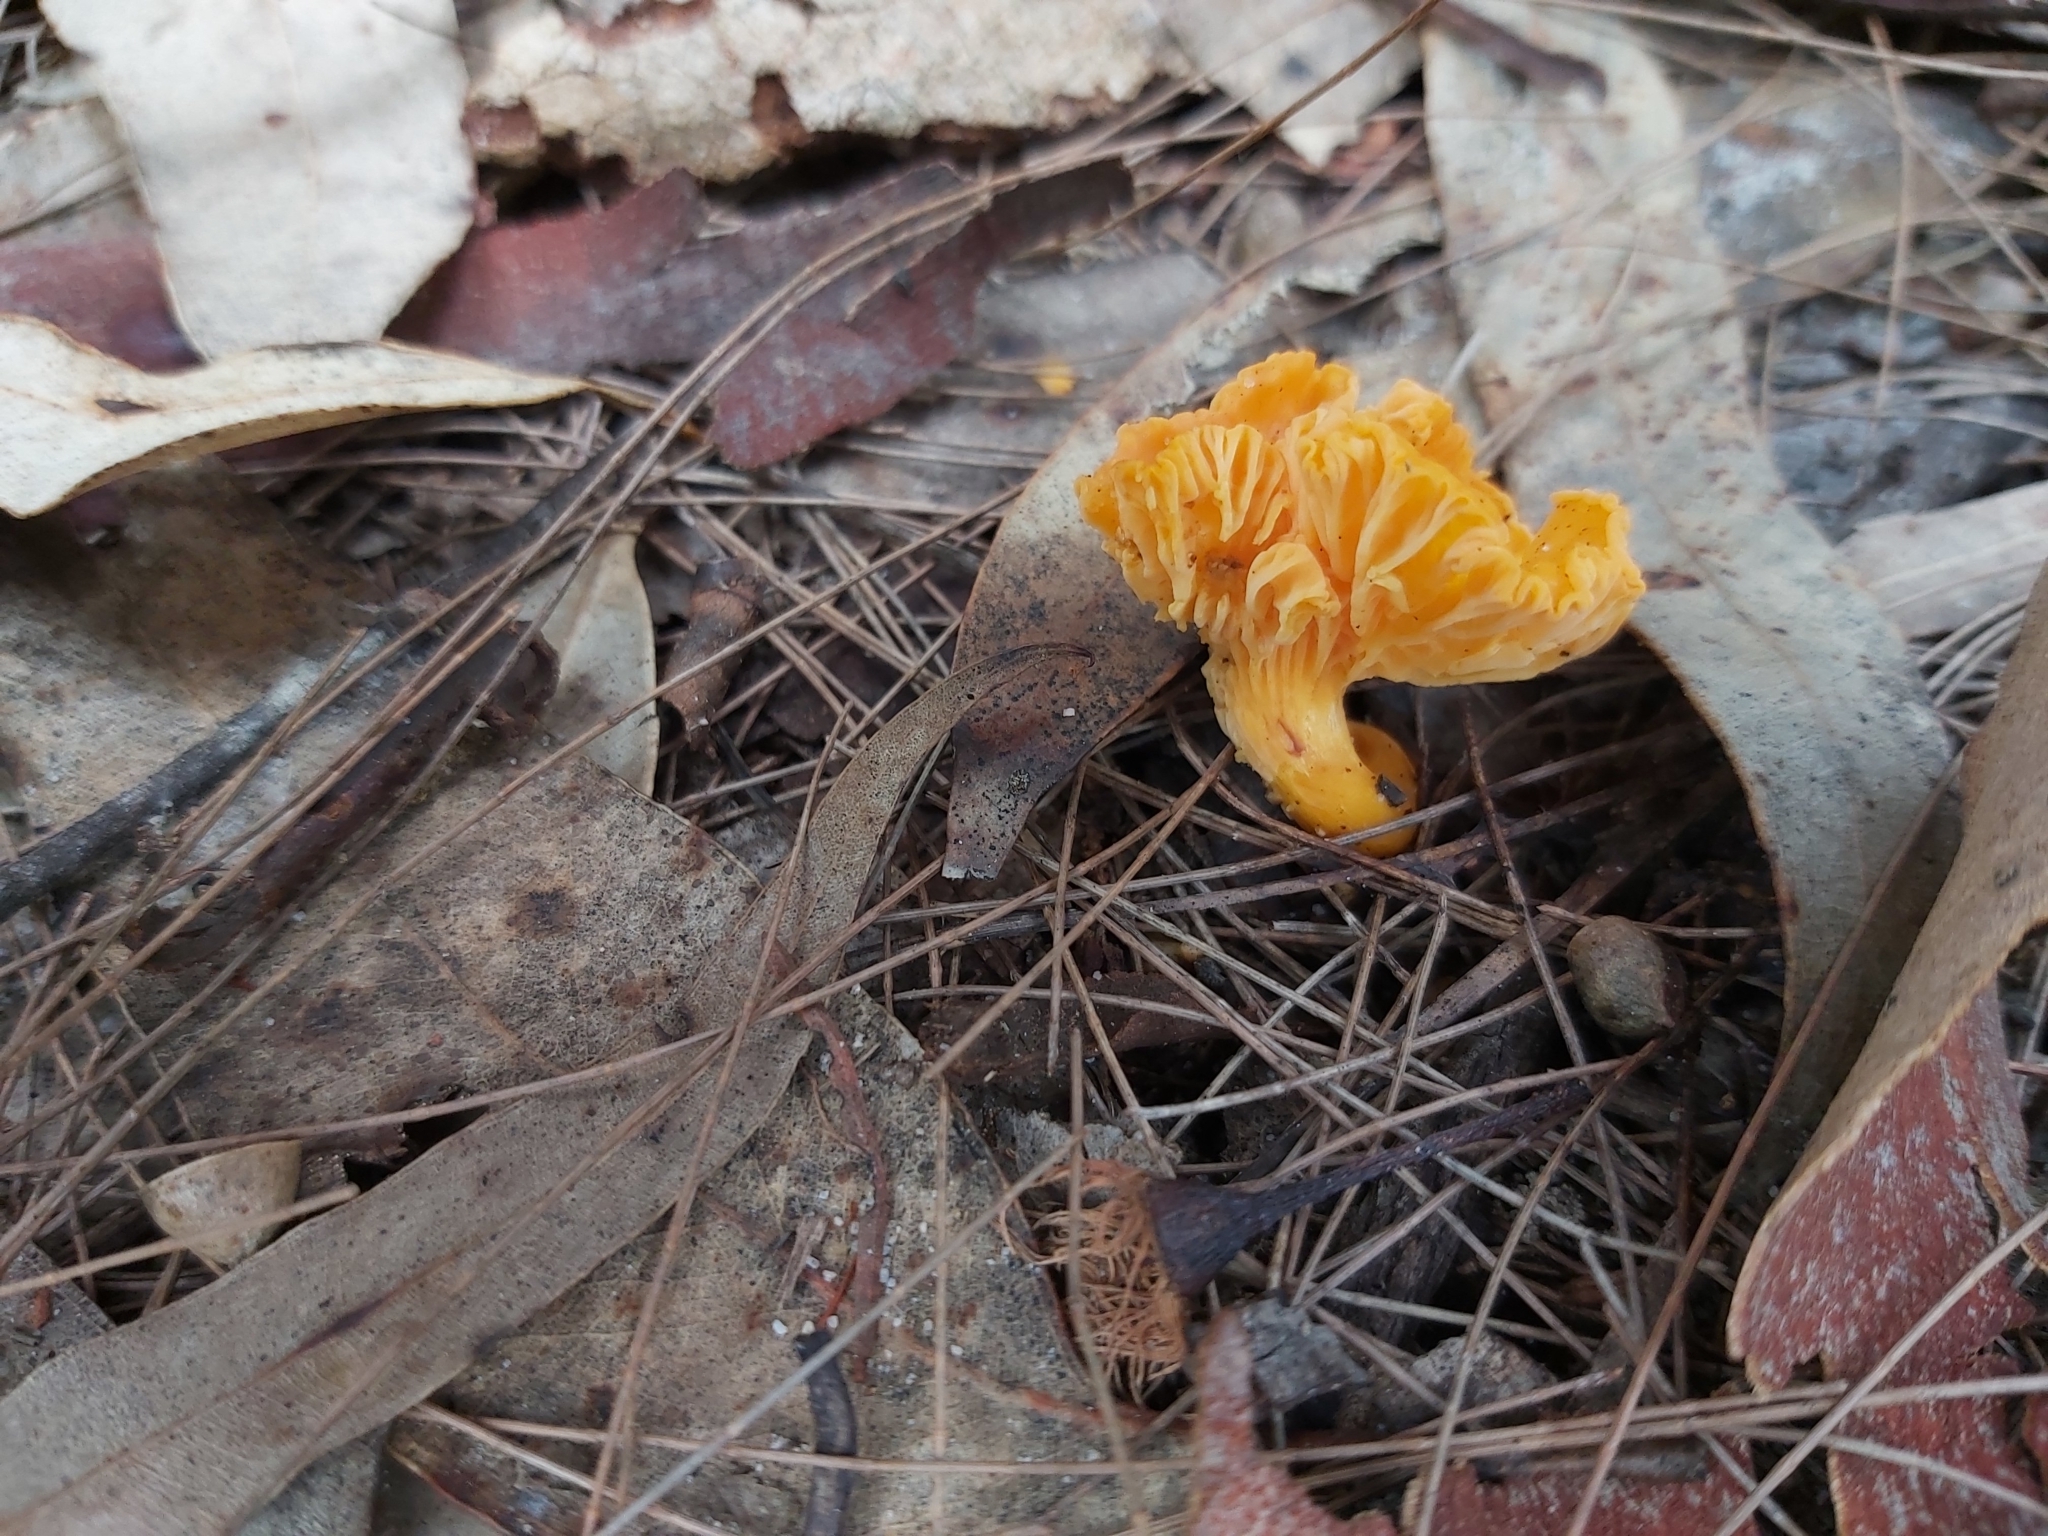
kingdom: Fungi
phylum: Basidiomycota
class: Agaricomycetes
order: Cantharellales
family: Hydnaceae
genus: Cantharellus
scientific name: Cantharellus
